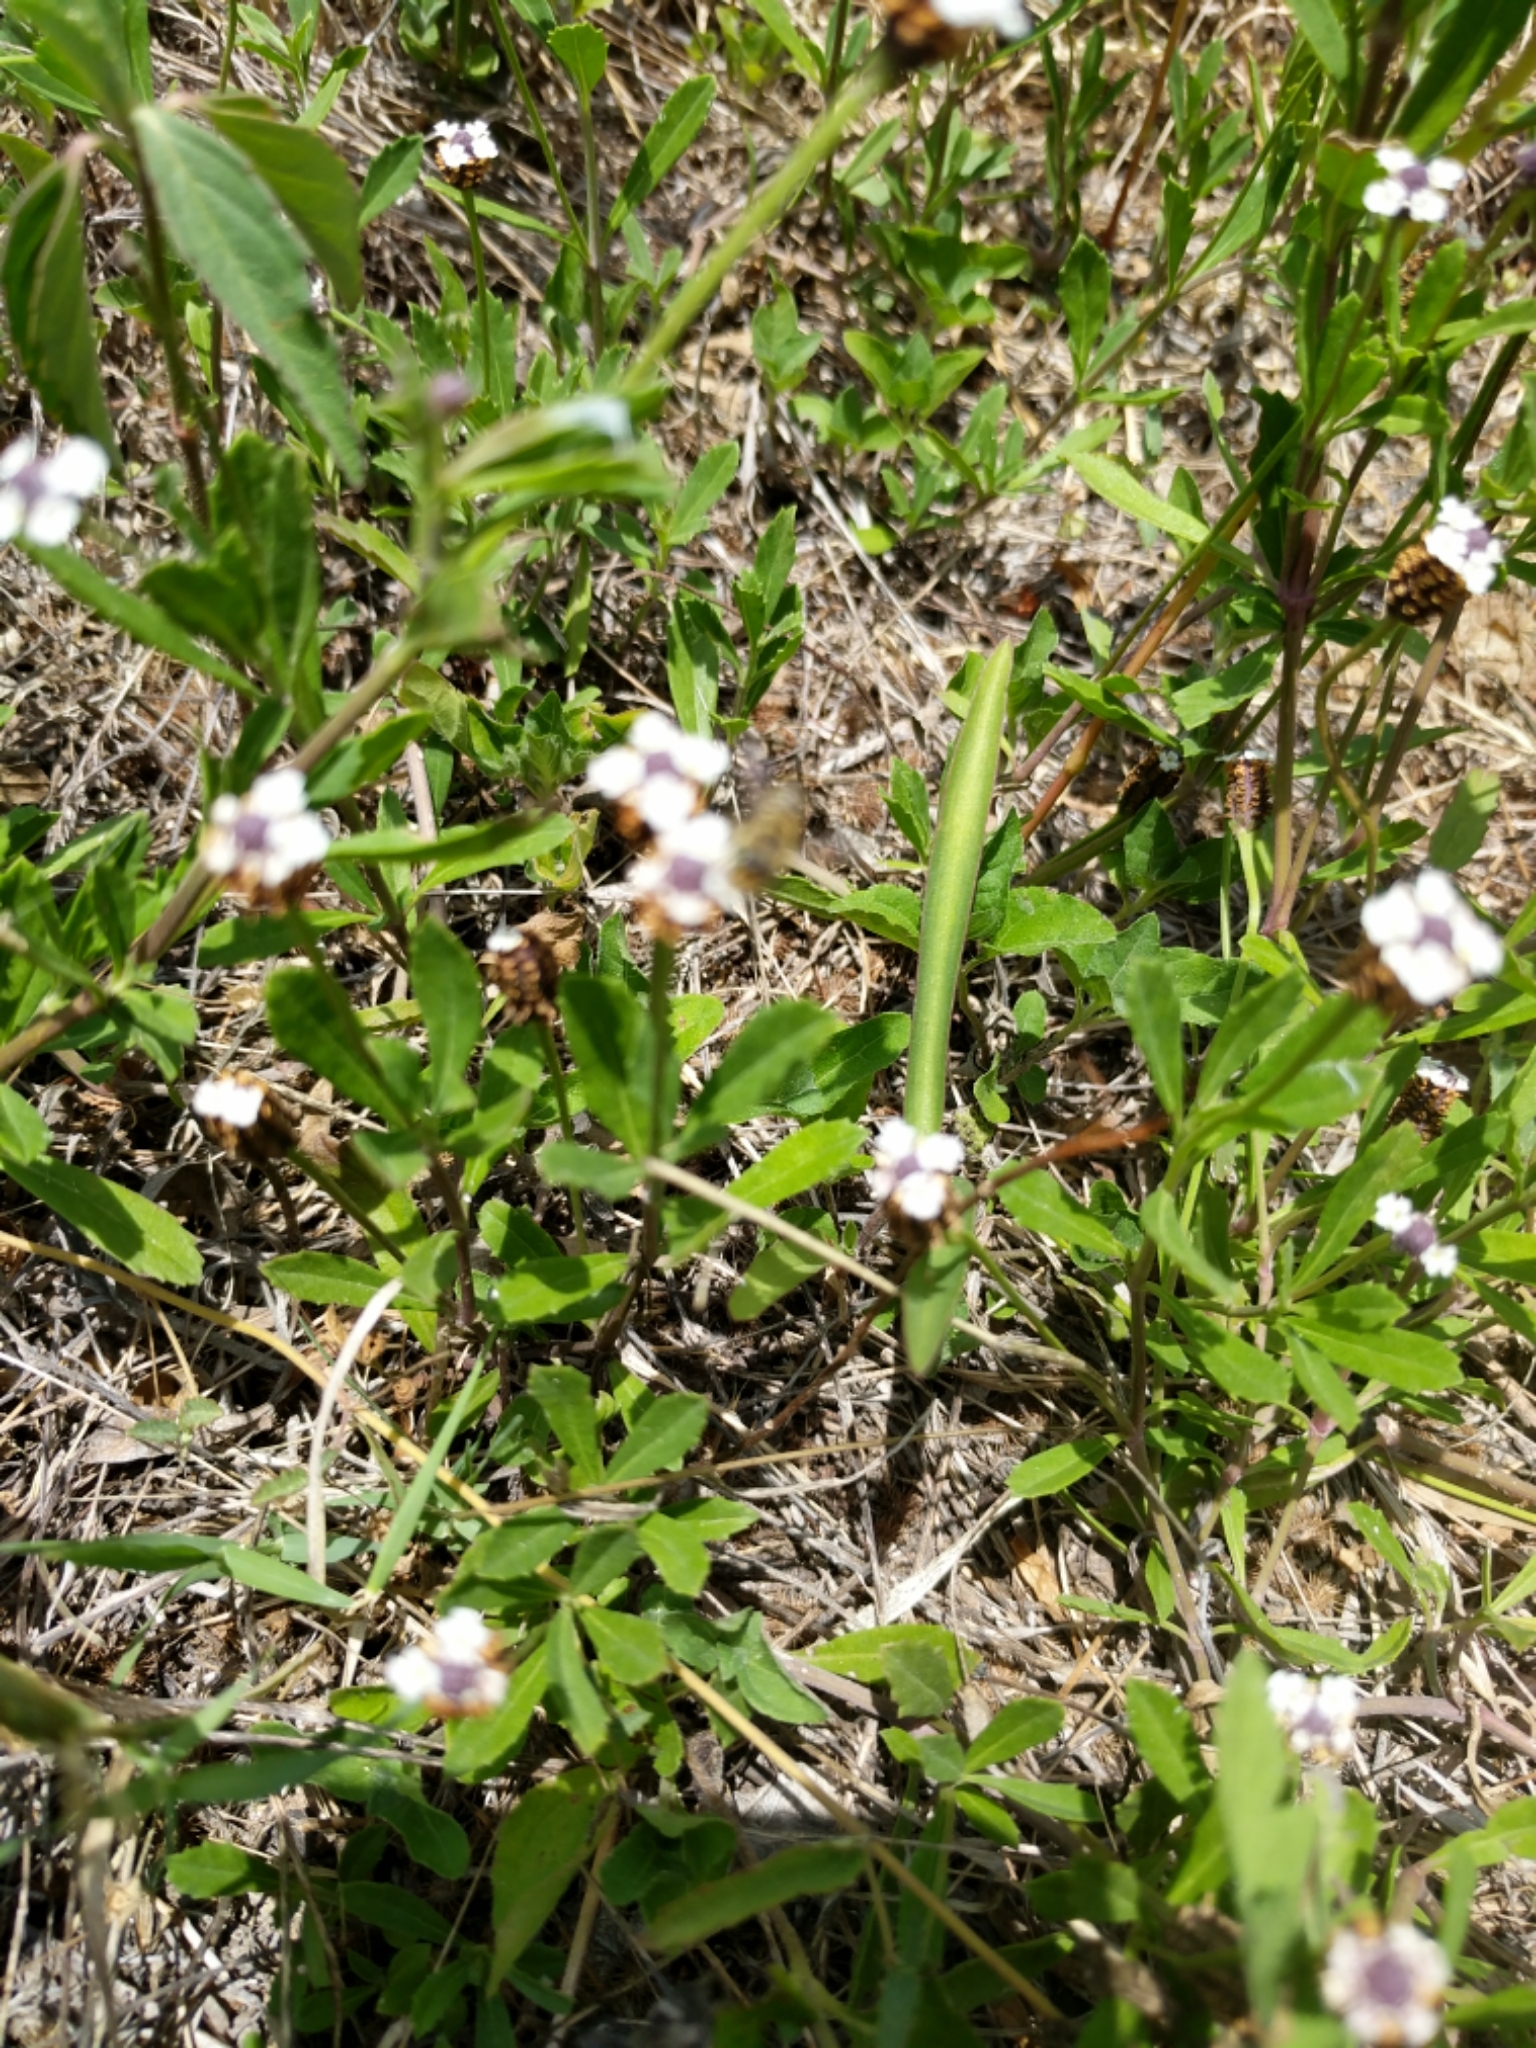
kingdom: Plantae
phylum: Tracheophyta
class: Magnoliopsida
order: Lamiales
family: Verbenaceae
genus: Phyla
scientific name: Phyla nodiflora
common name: Frogfruit
